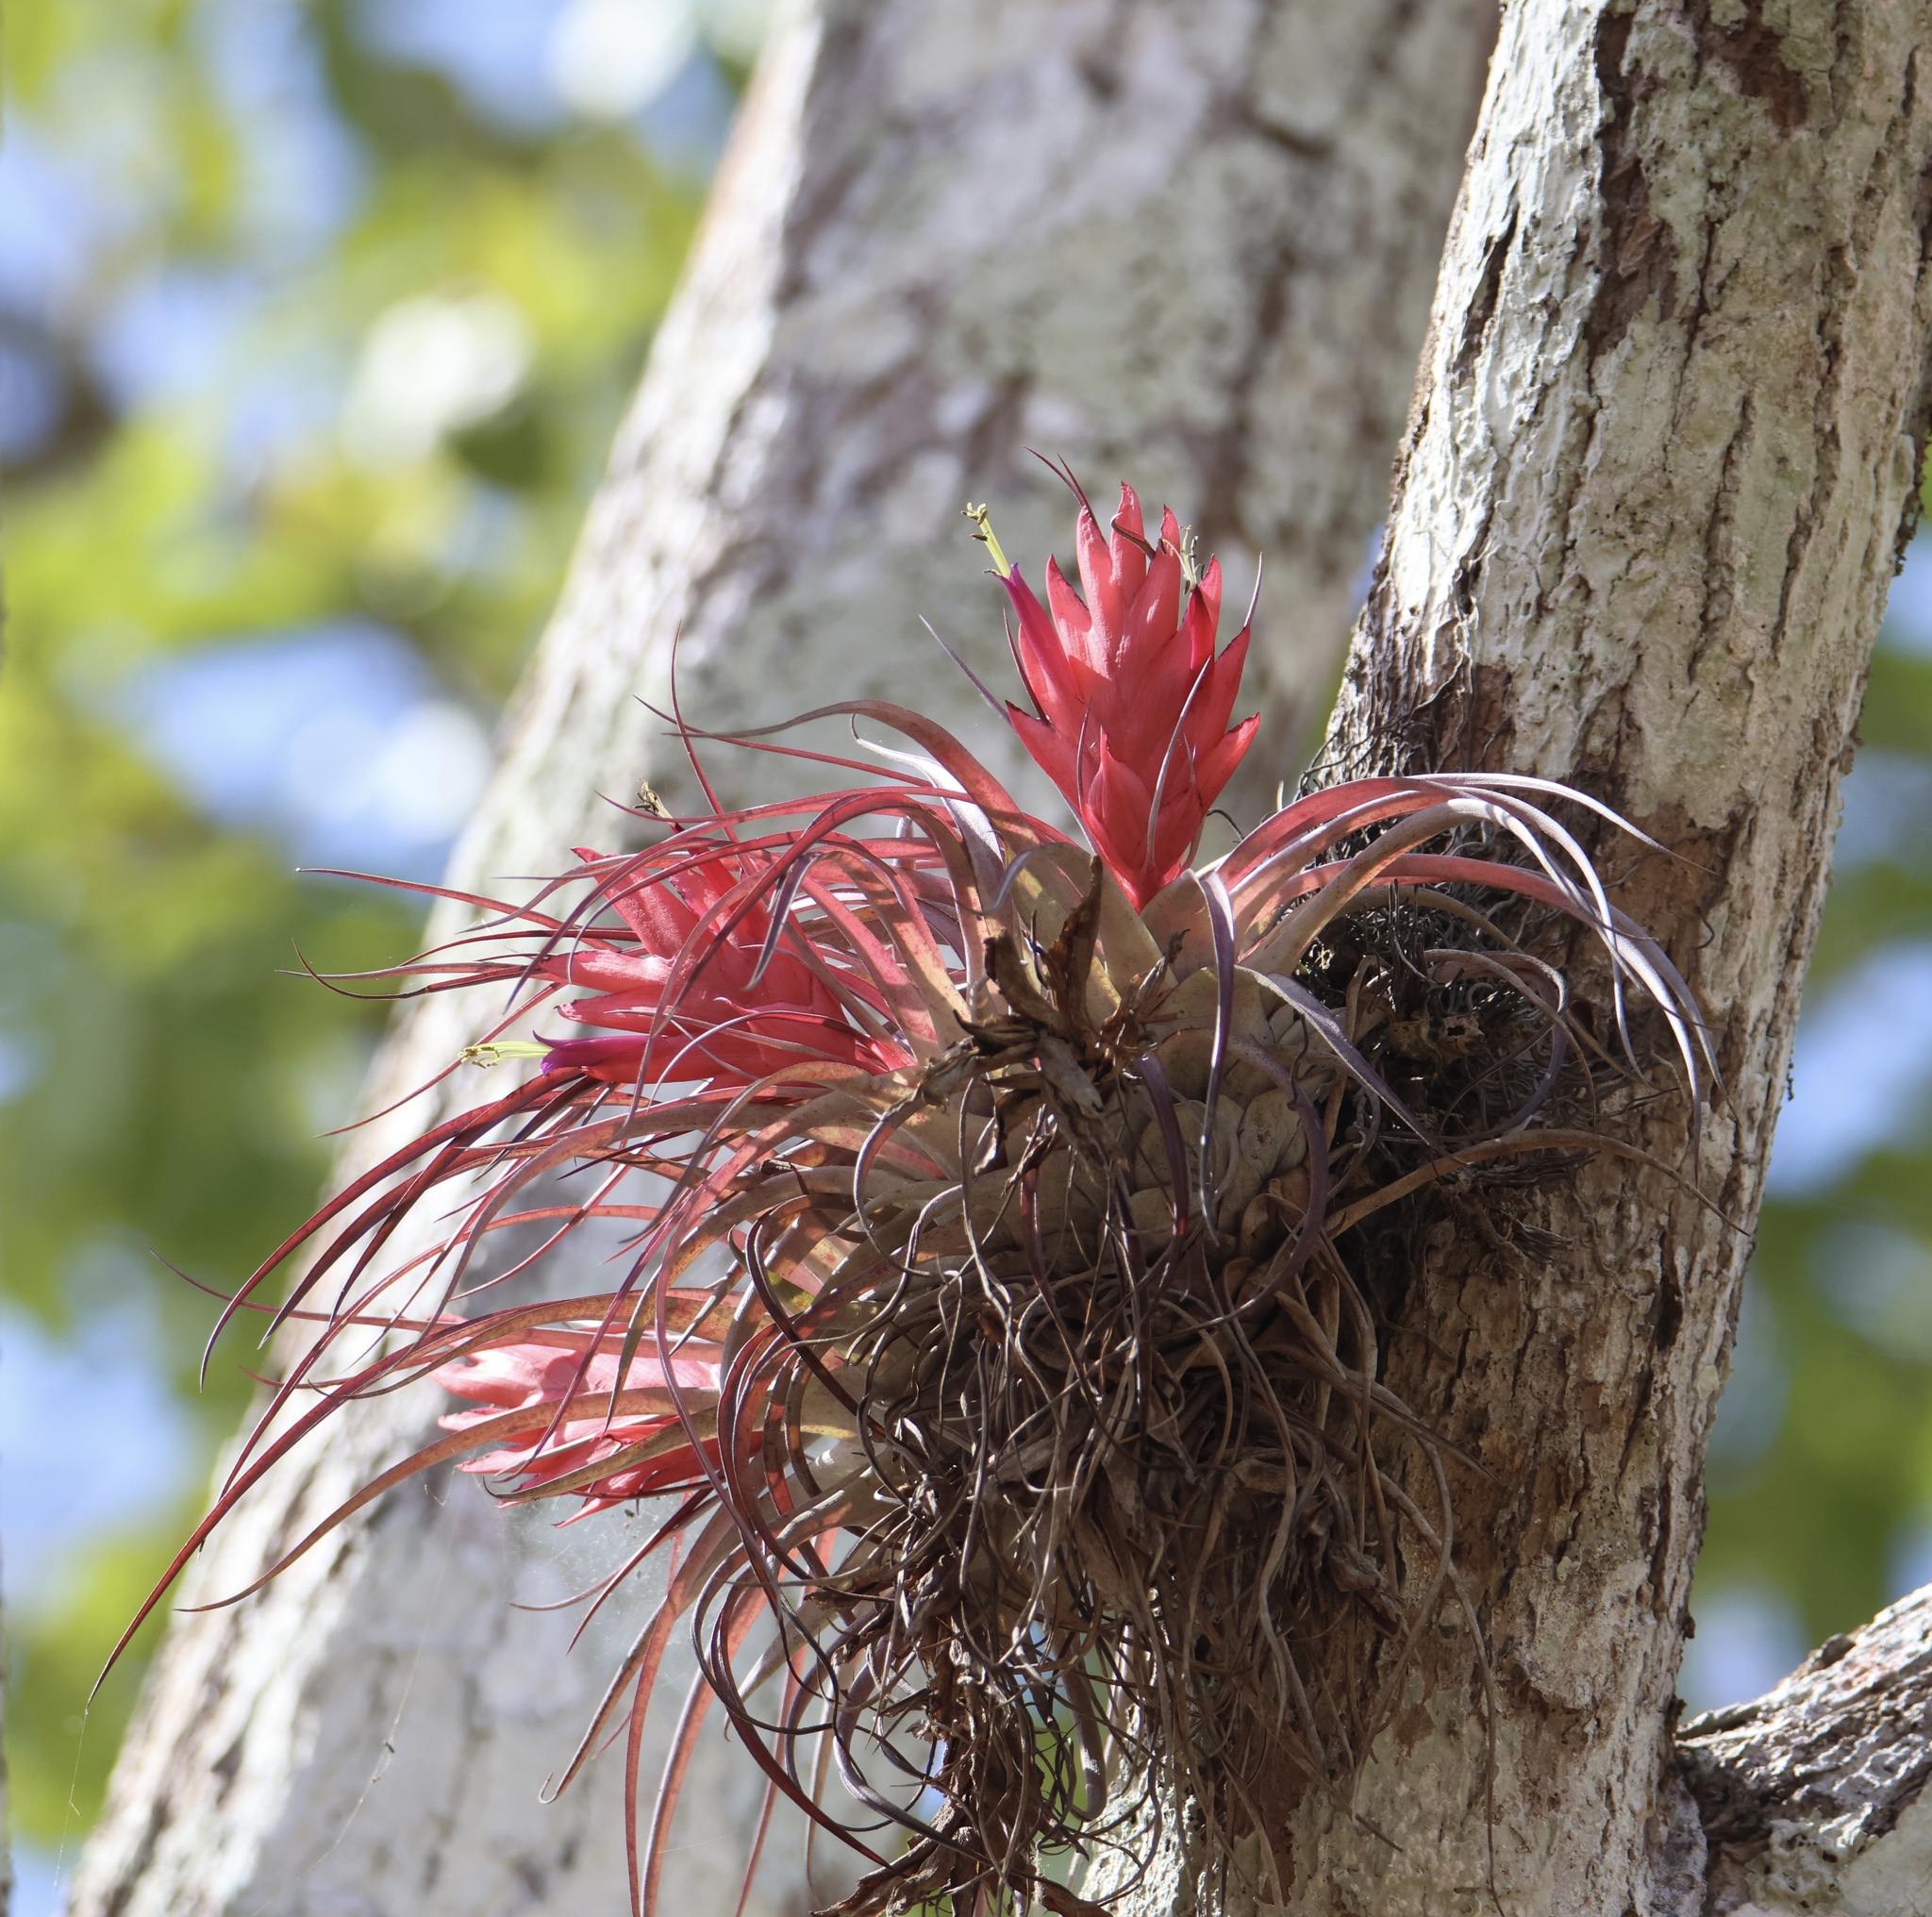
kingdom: Plantae
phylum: Tracheophyta
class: Liliopsida
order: Poales
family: Bromeliaceae
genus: Tillandsia
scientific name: Tillandsia kegeliana
